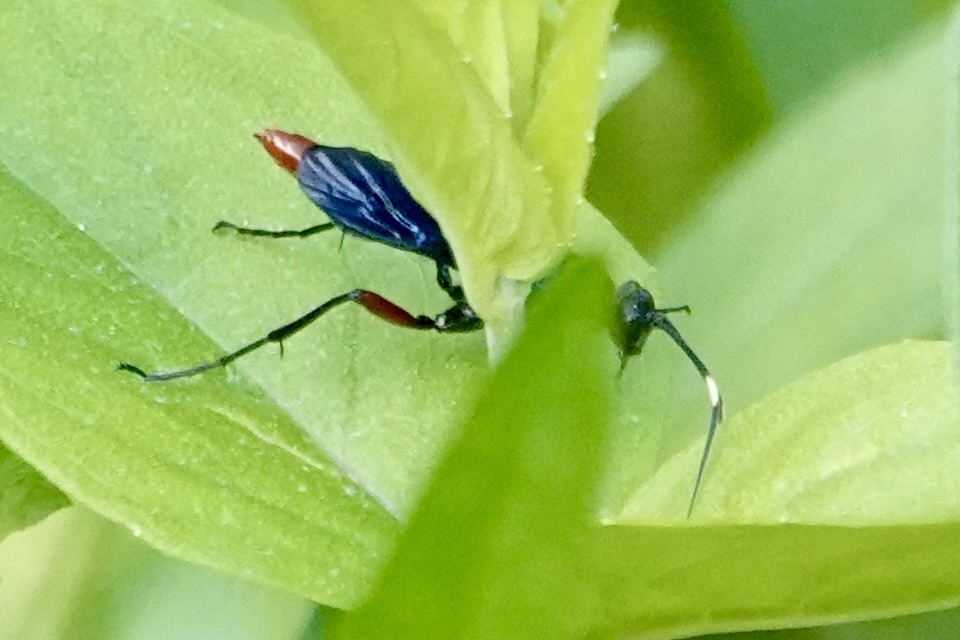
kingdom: Animalia
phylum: Arthropoda
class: Insecta
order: Hymenoptera
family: Ichneumonidae
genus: Limonethe
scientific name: Limonethe maurator
